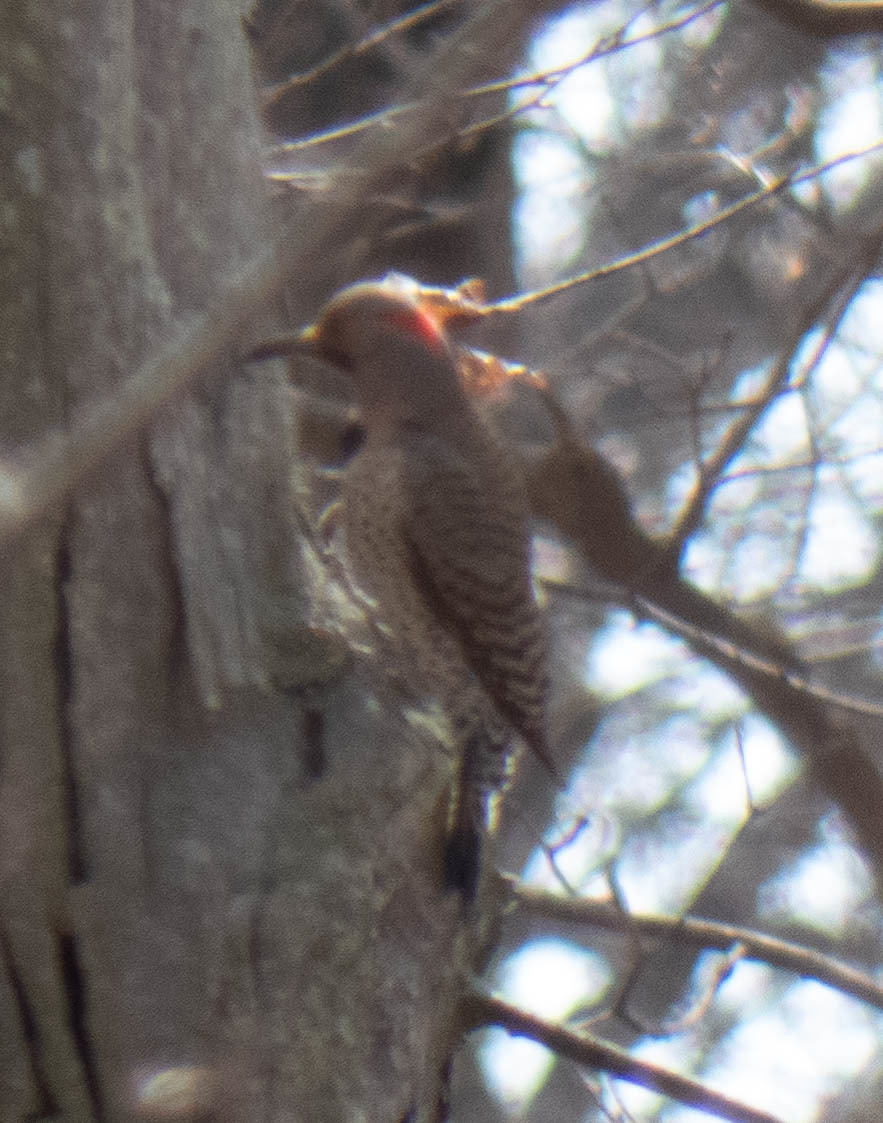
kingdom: Animalia
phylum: Chordata
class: Aves
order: Piciformes
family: Picidae
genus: Colaptes
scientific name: Colaptes auratus
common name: Northern flicker
